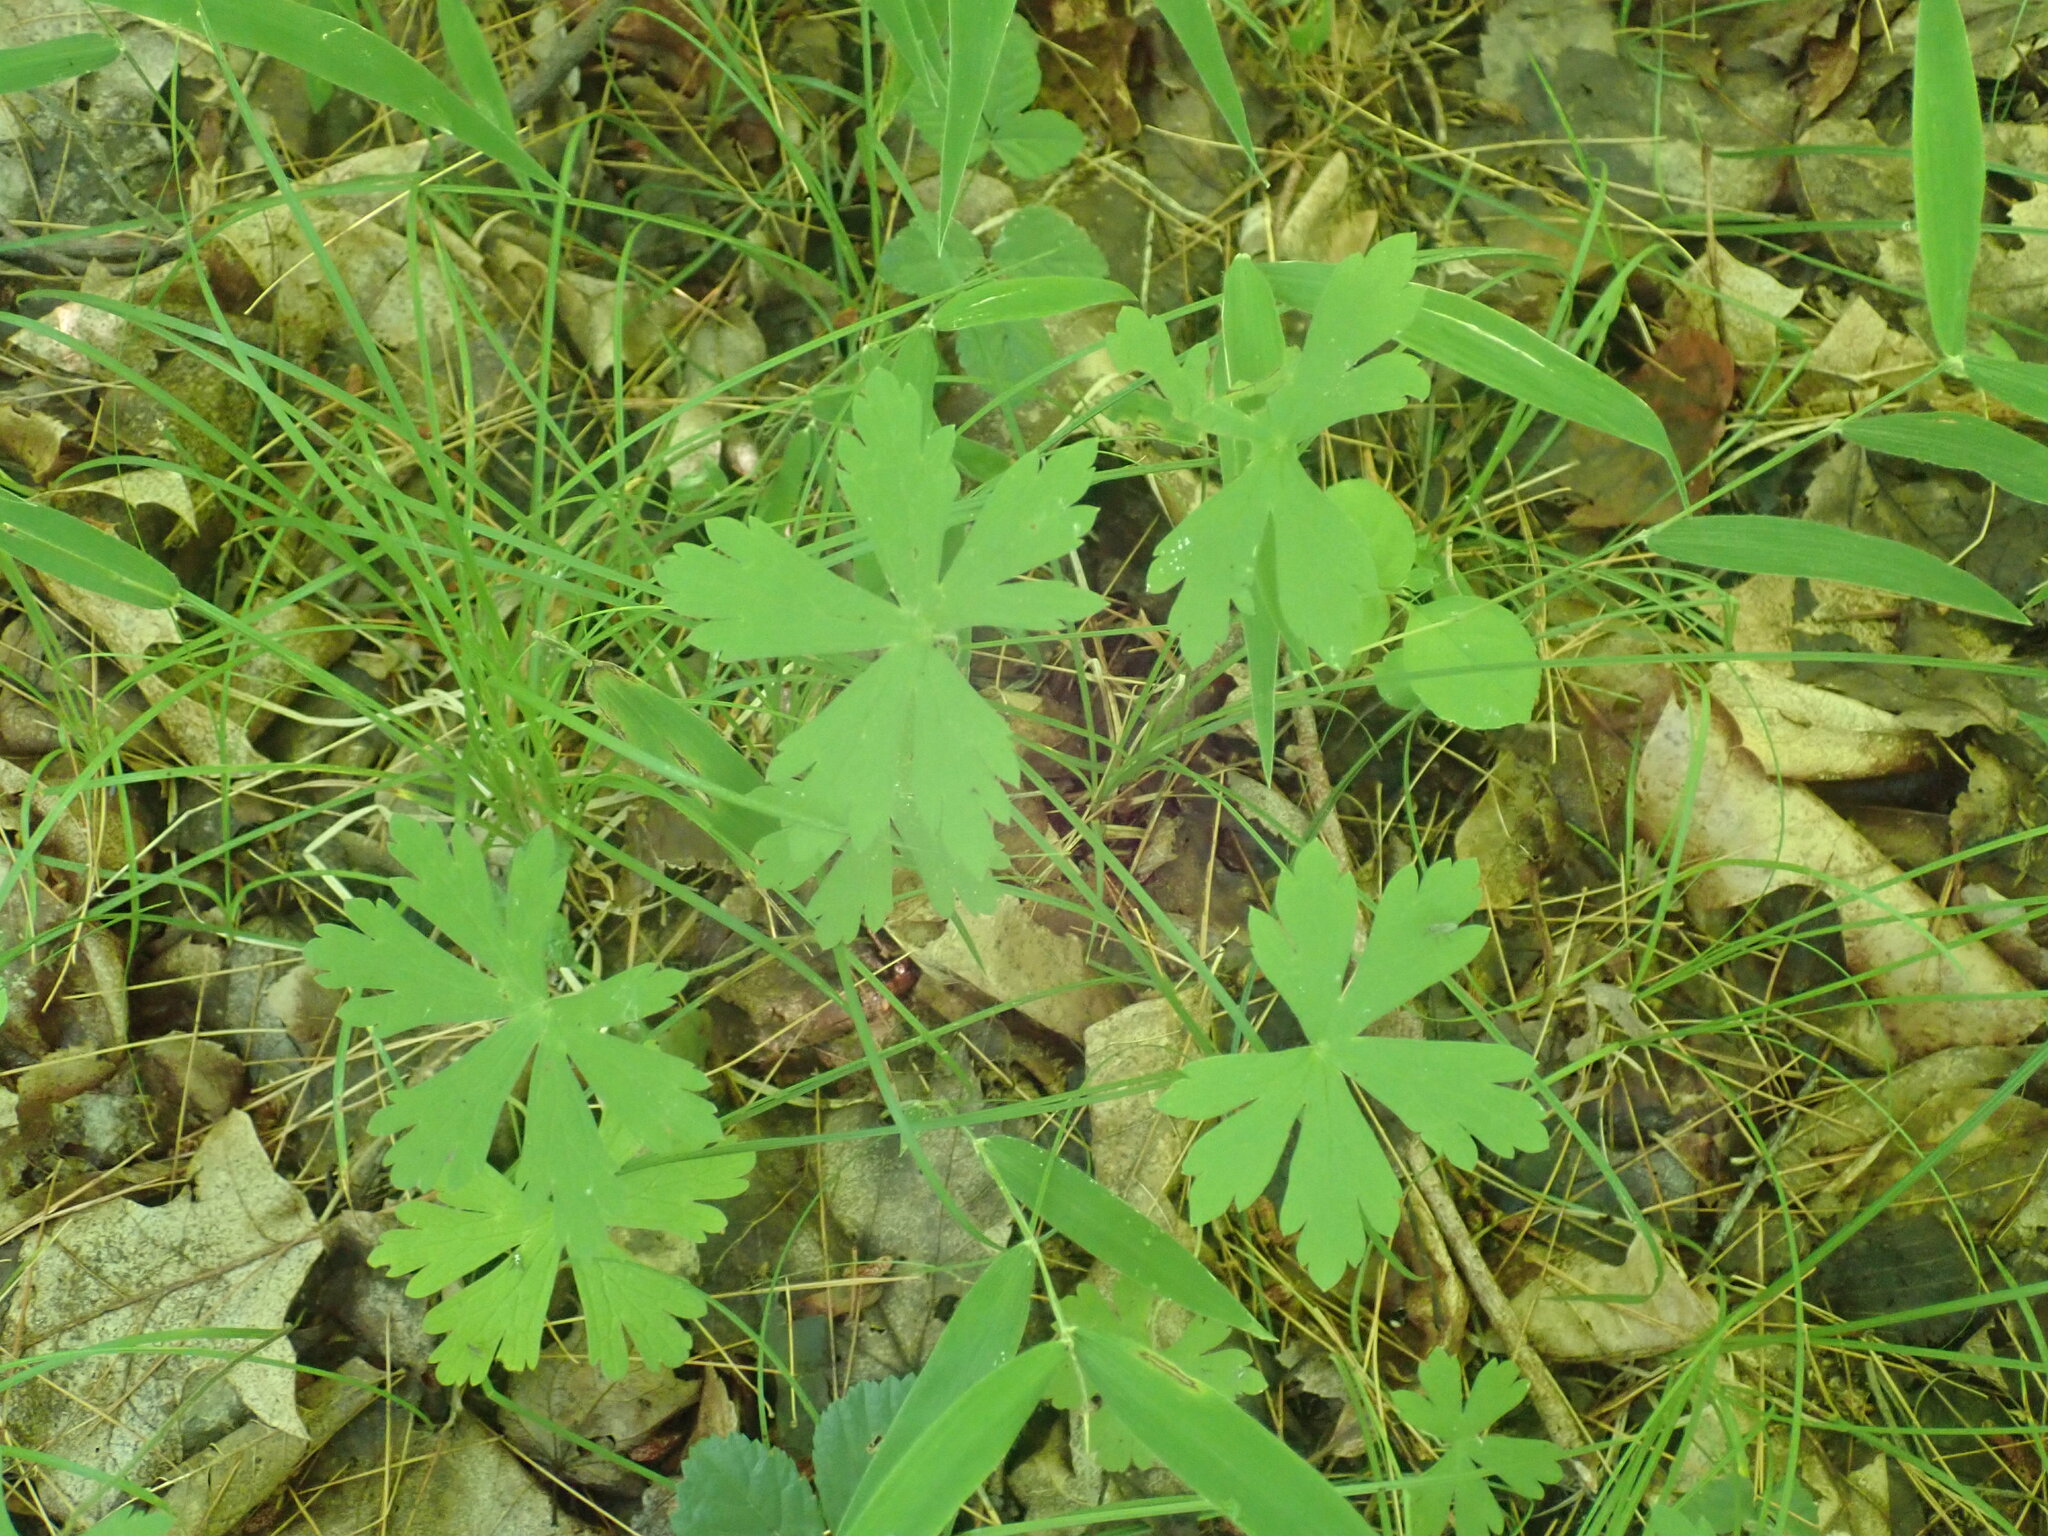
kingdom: Plantae
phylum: Tracheophyta
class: Magnoliopsida
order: Geraniales
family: Geraniaceae
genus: Geranium
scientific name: Geranium maculatum
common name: Spotted geranium
